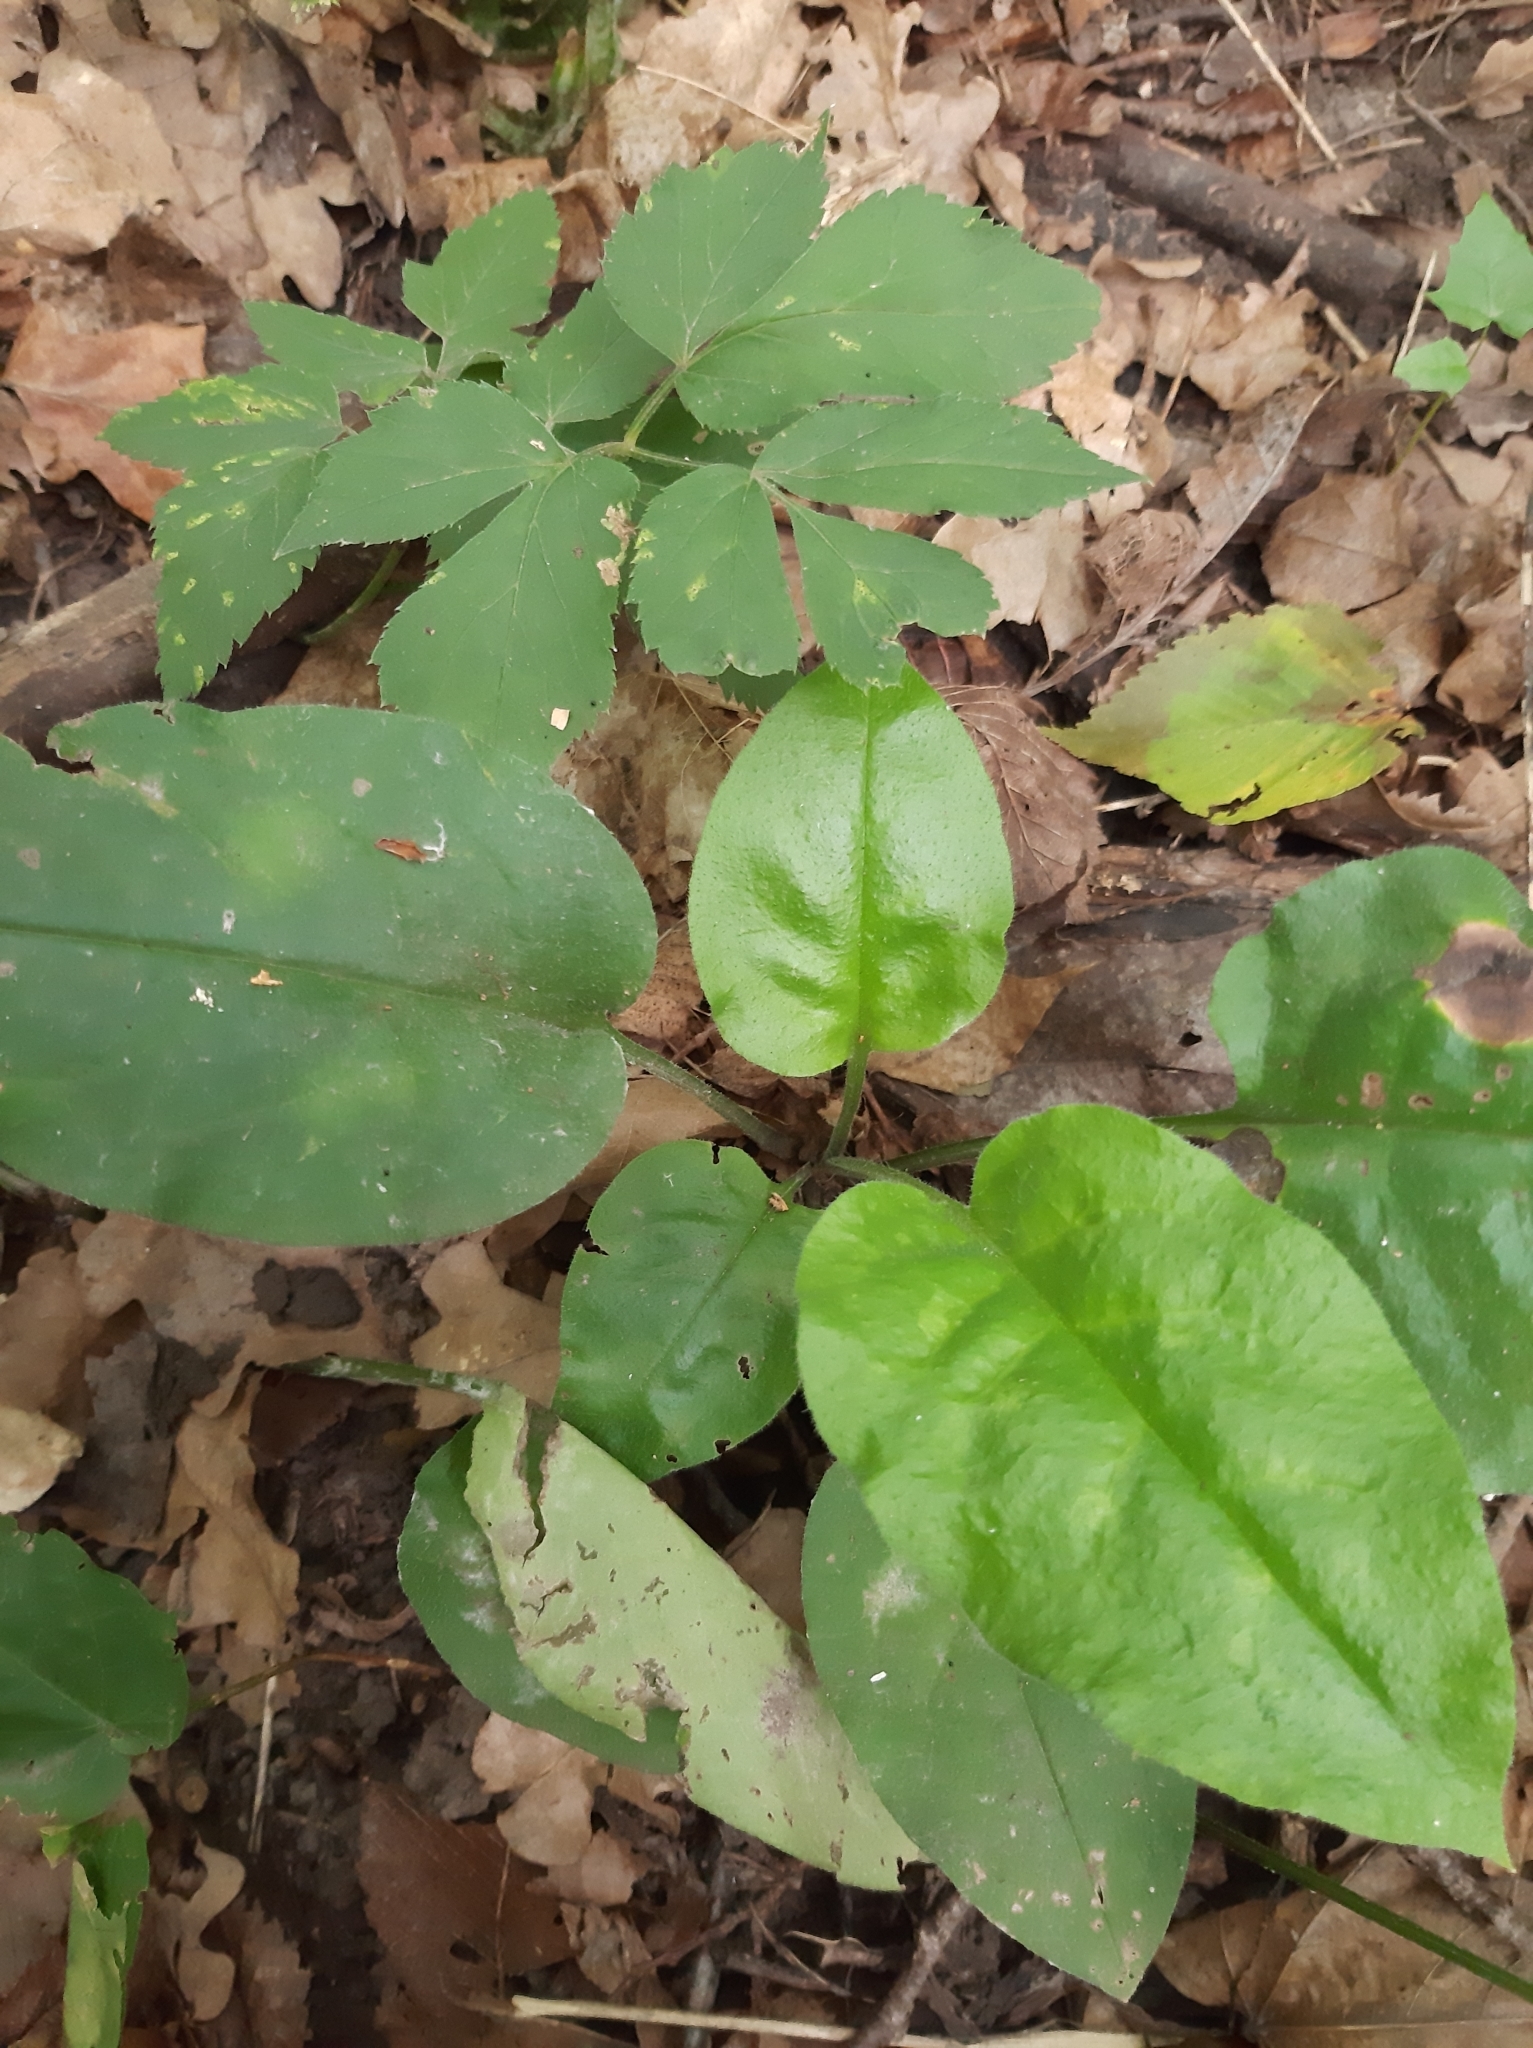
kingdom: Plantae
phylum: Tracheophyta
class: Magnoliopsida
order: Boraginales
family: Boraginaceae
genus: Pulmonaria
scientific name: Pulmonaria obscura
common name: Suffolk lungwort
